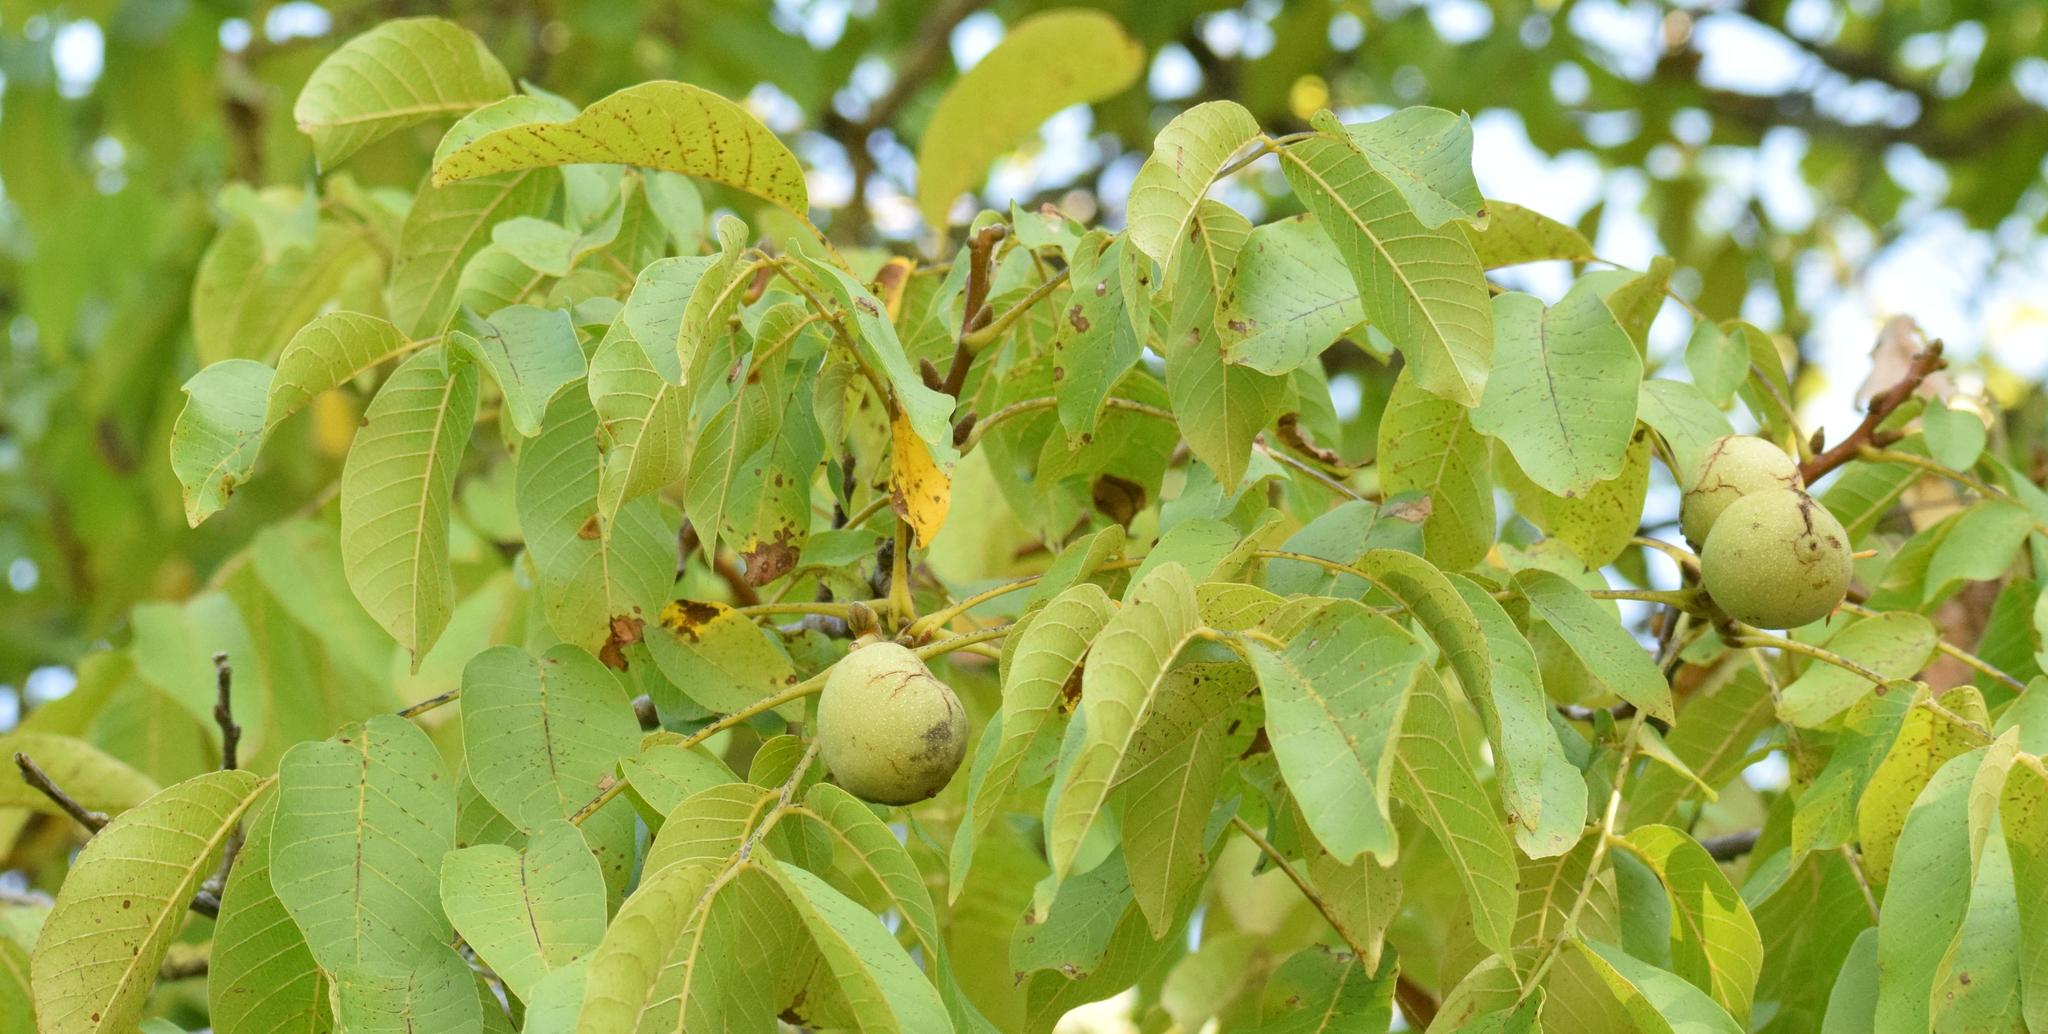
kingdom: Plantae
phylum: Tracheophyta
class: Magnoliopsida
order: Fagales
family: Juglandaceae
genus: Juglans
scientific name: Juglans regia
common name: Walnut
